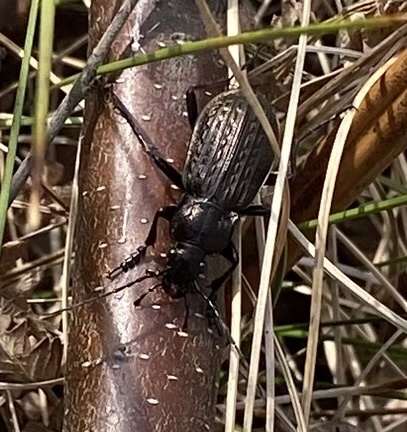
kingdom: Animalia
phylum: Arthropoda
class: Insecta
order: Coleoptera
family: Carabidae
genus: Carabus
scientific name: Carabus granulatus
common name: Granulate ground beetle
